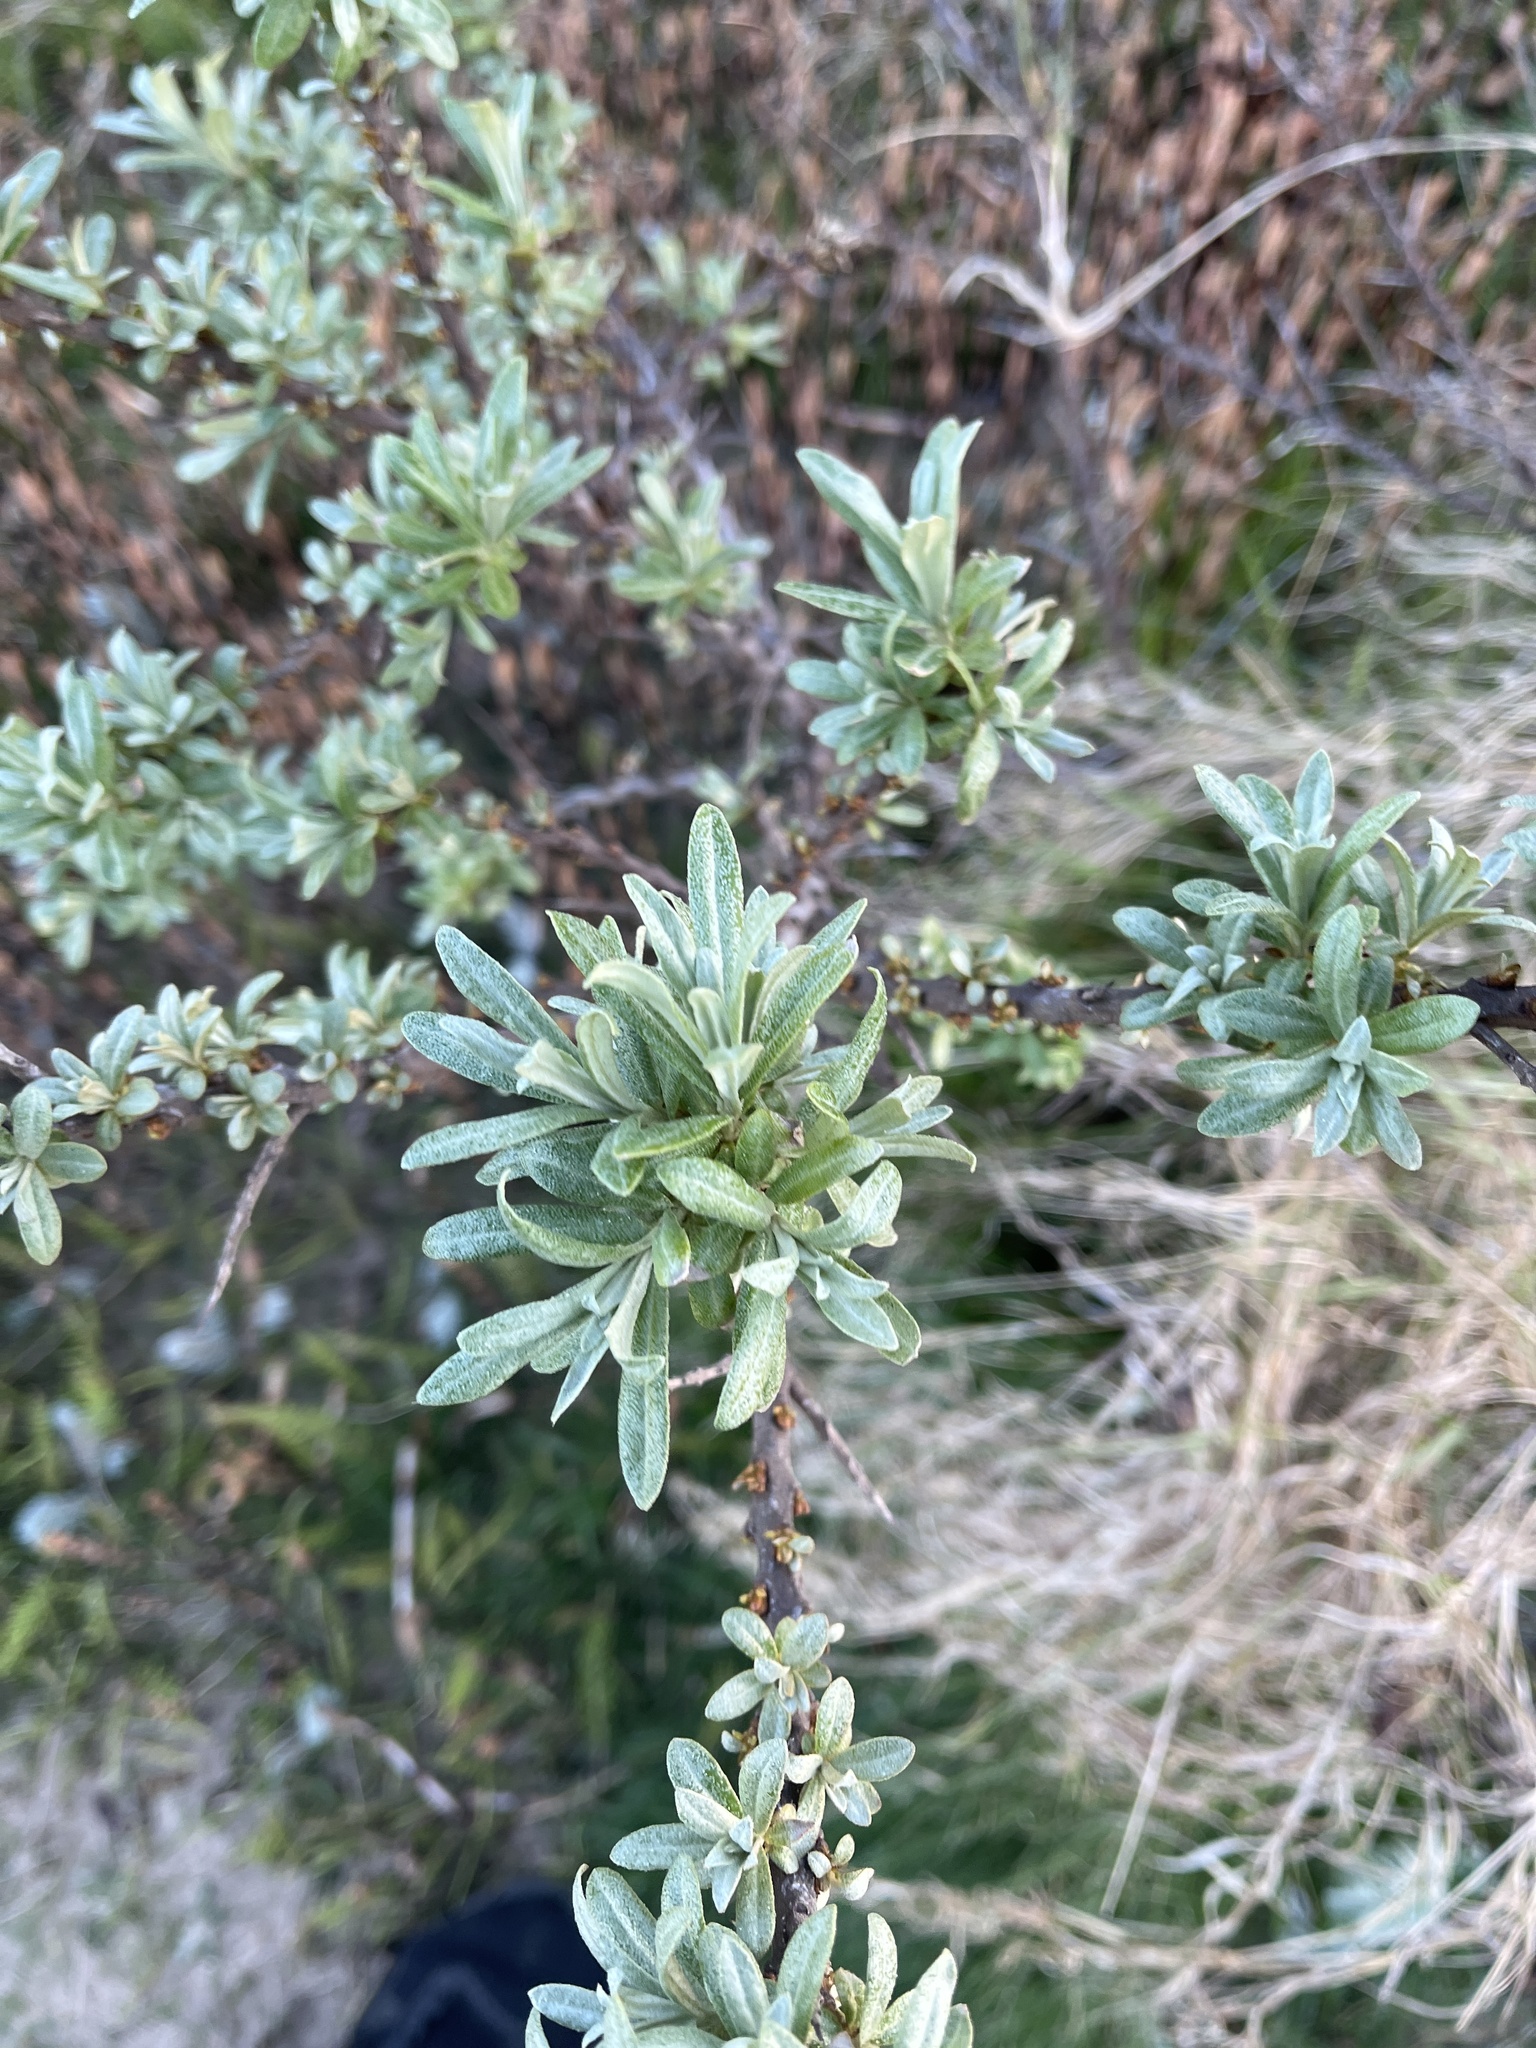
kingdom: Plantae
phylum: Tracheophyta
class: Magnoliopsida
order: Rosales
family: Elaeagnaceae
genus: Hippophae
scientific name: Hippophae rhamnoides
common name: Sea-buckthorn
